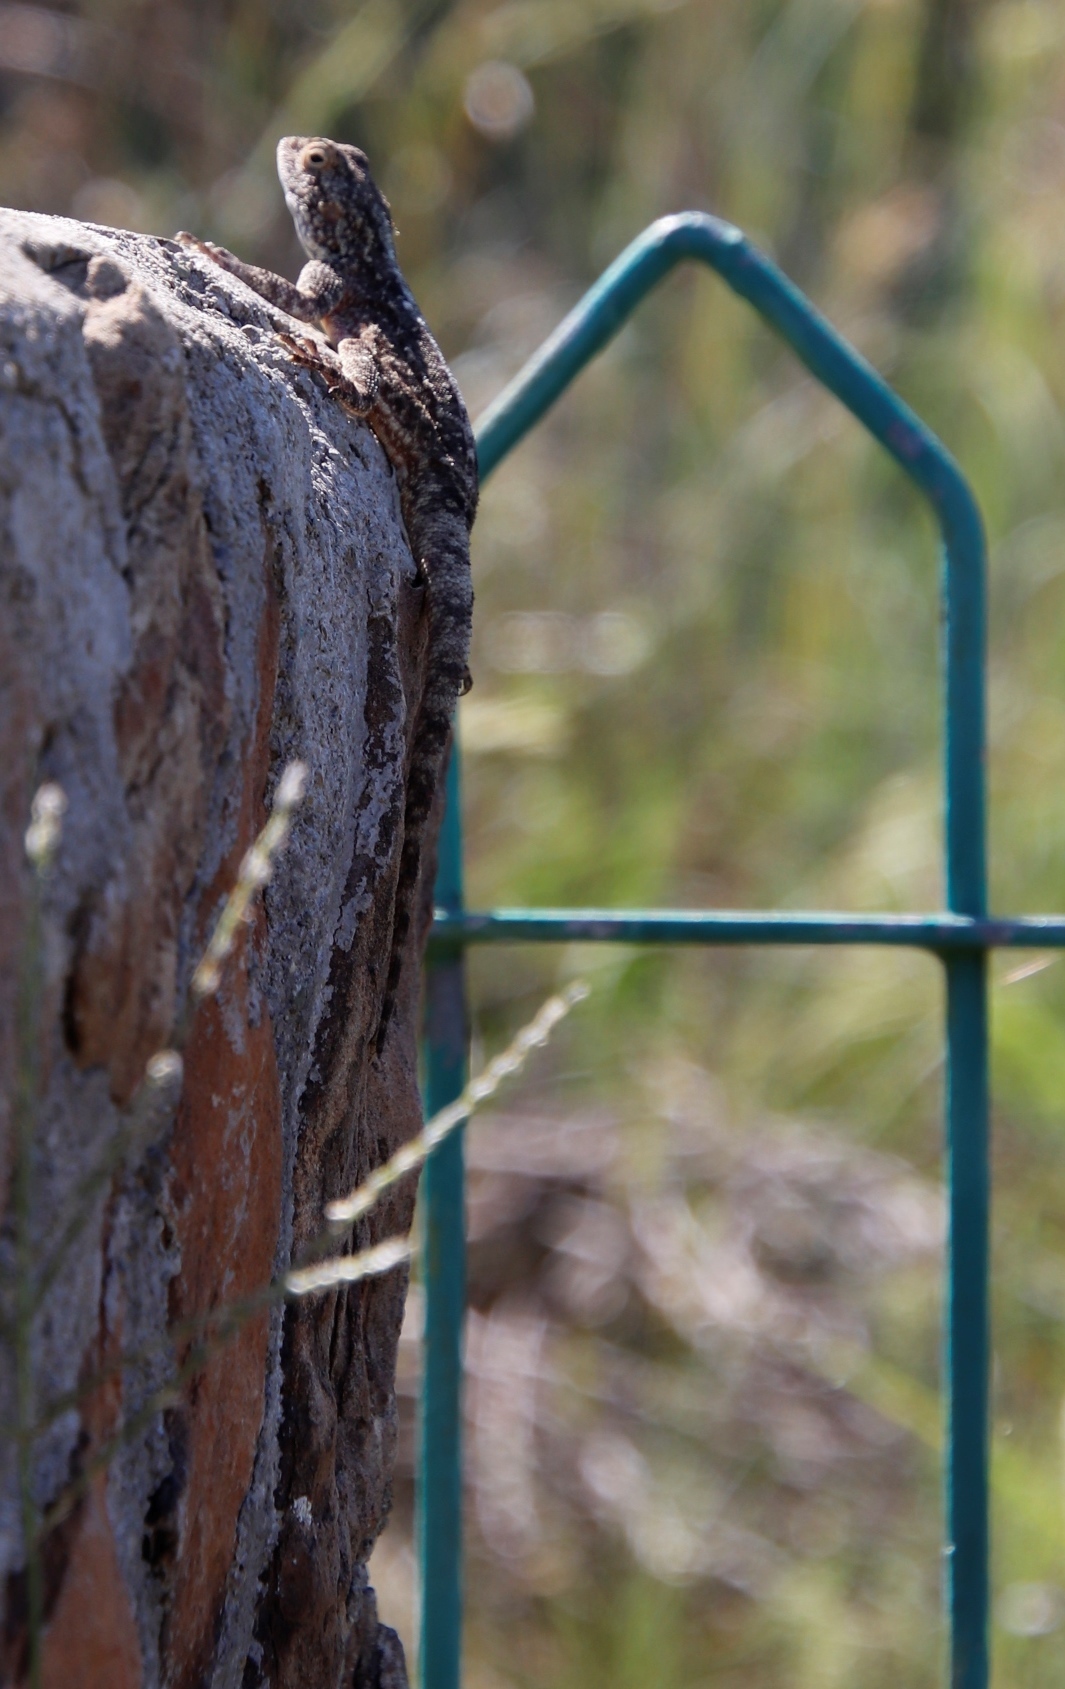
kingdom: Animalia
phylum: Chordata
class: Squamata
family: Agamidae
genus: Agama
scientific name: Agama atra
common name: Southern african rock agama
